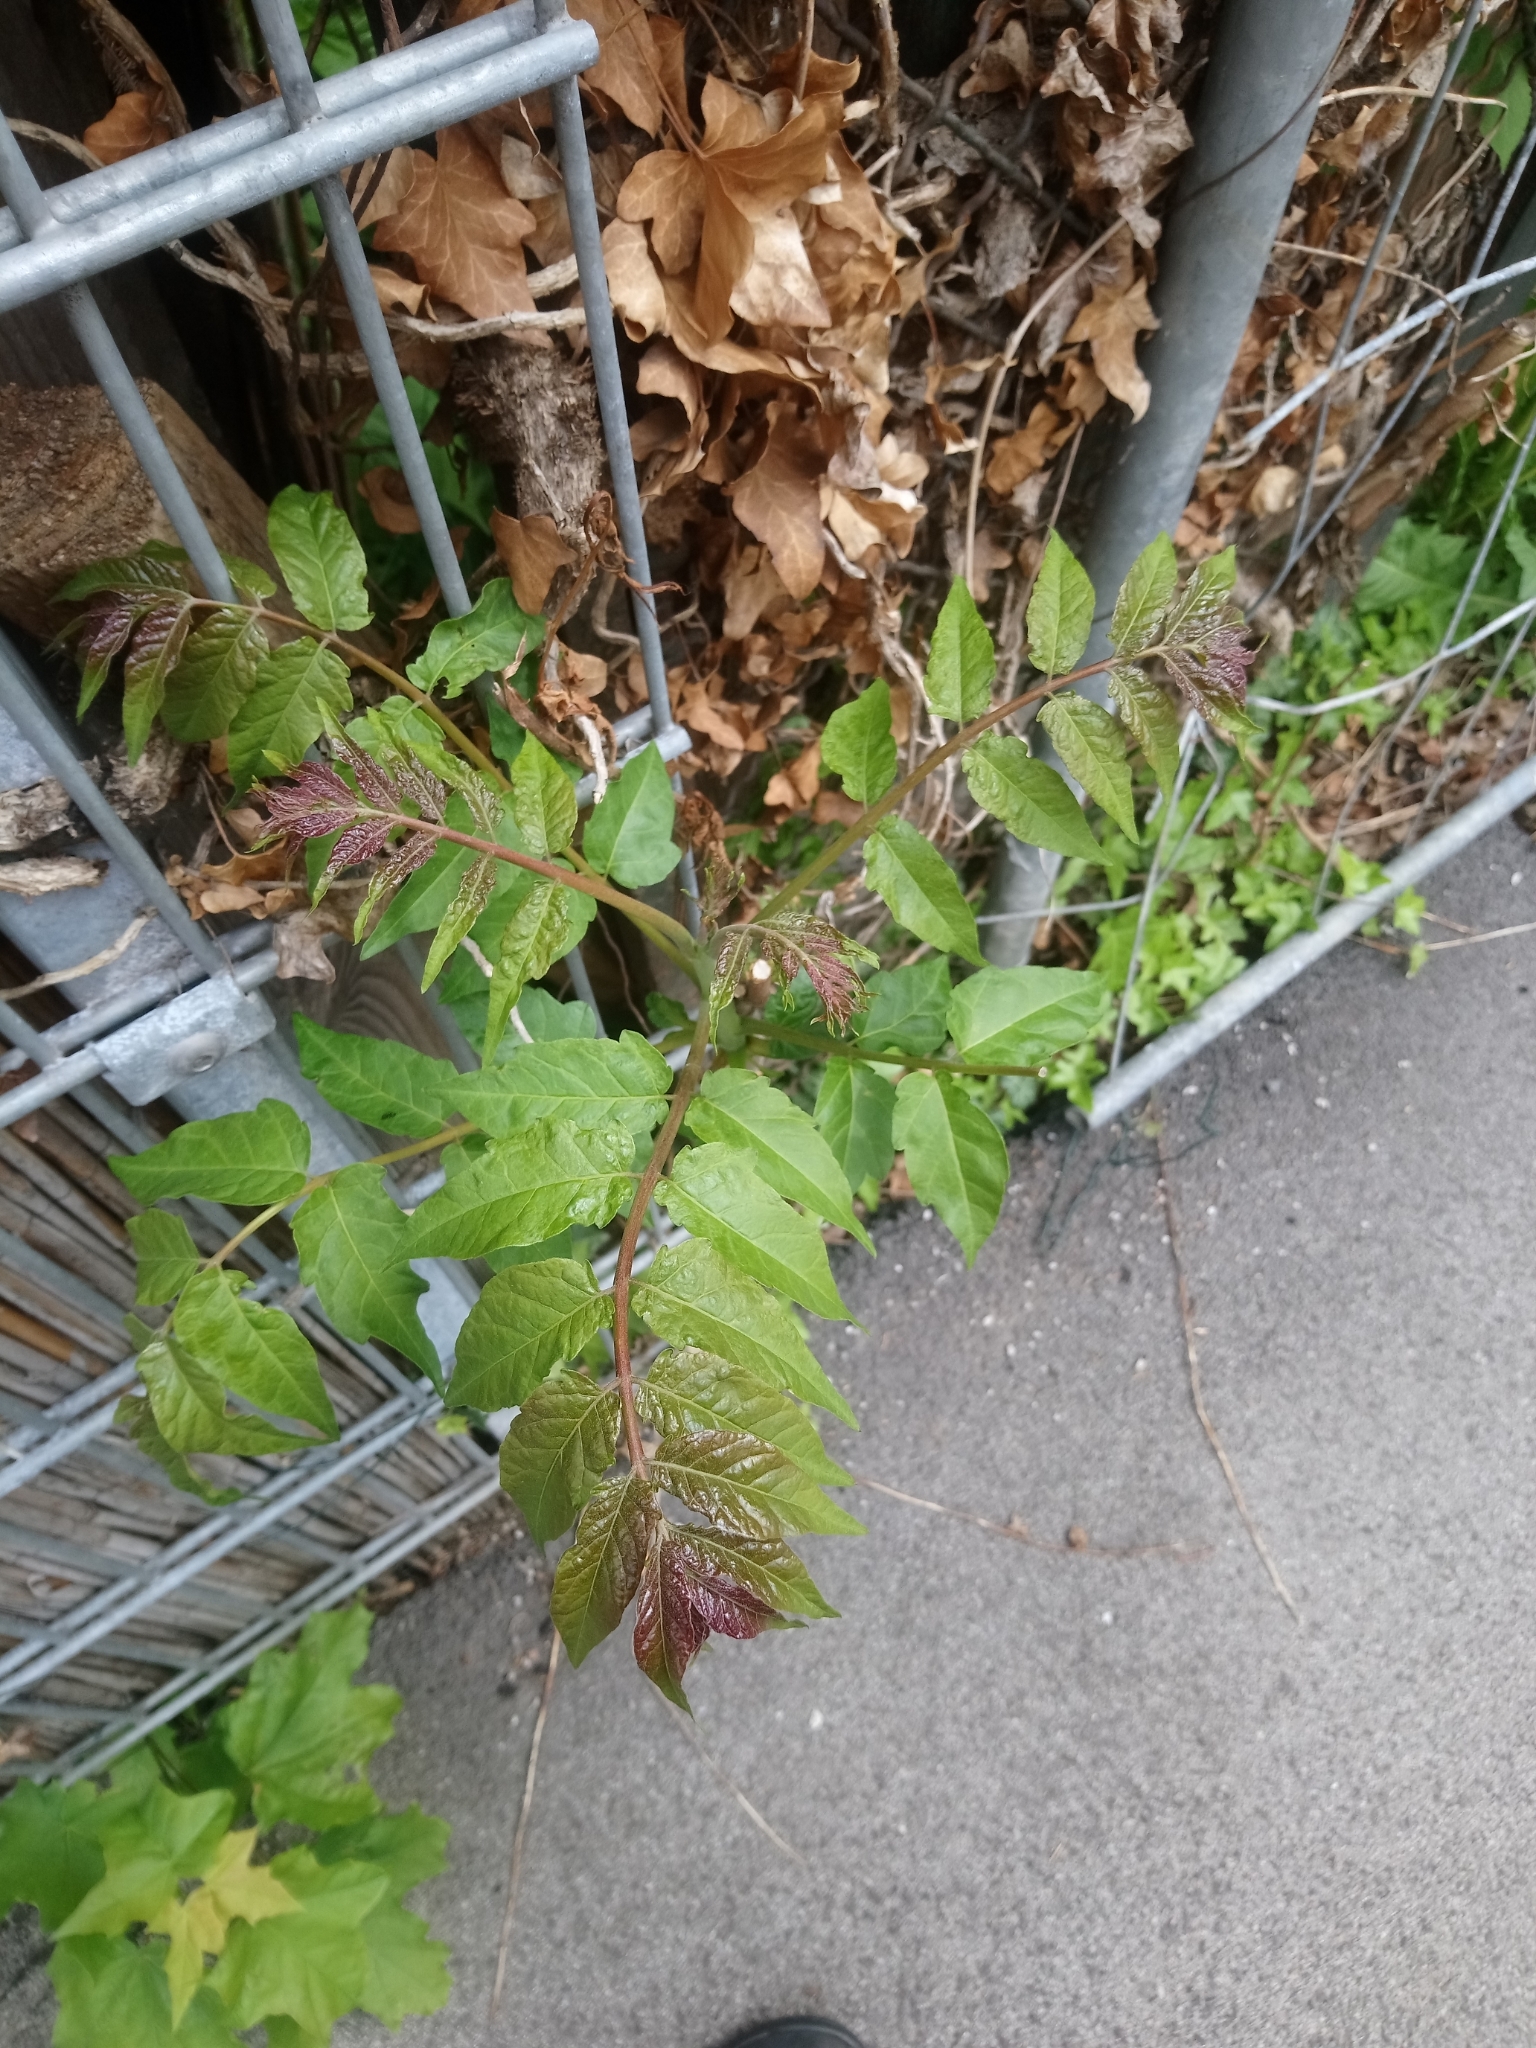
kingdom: Plantae
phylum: Tracheophyta
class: Magnoliopsida
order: Sapindales
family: Simaroubaceae
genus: Ailanthus
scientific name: Ailanthus altissima
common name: Tree-of-heaven
